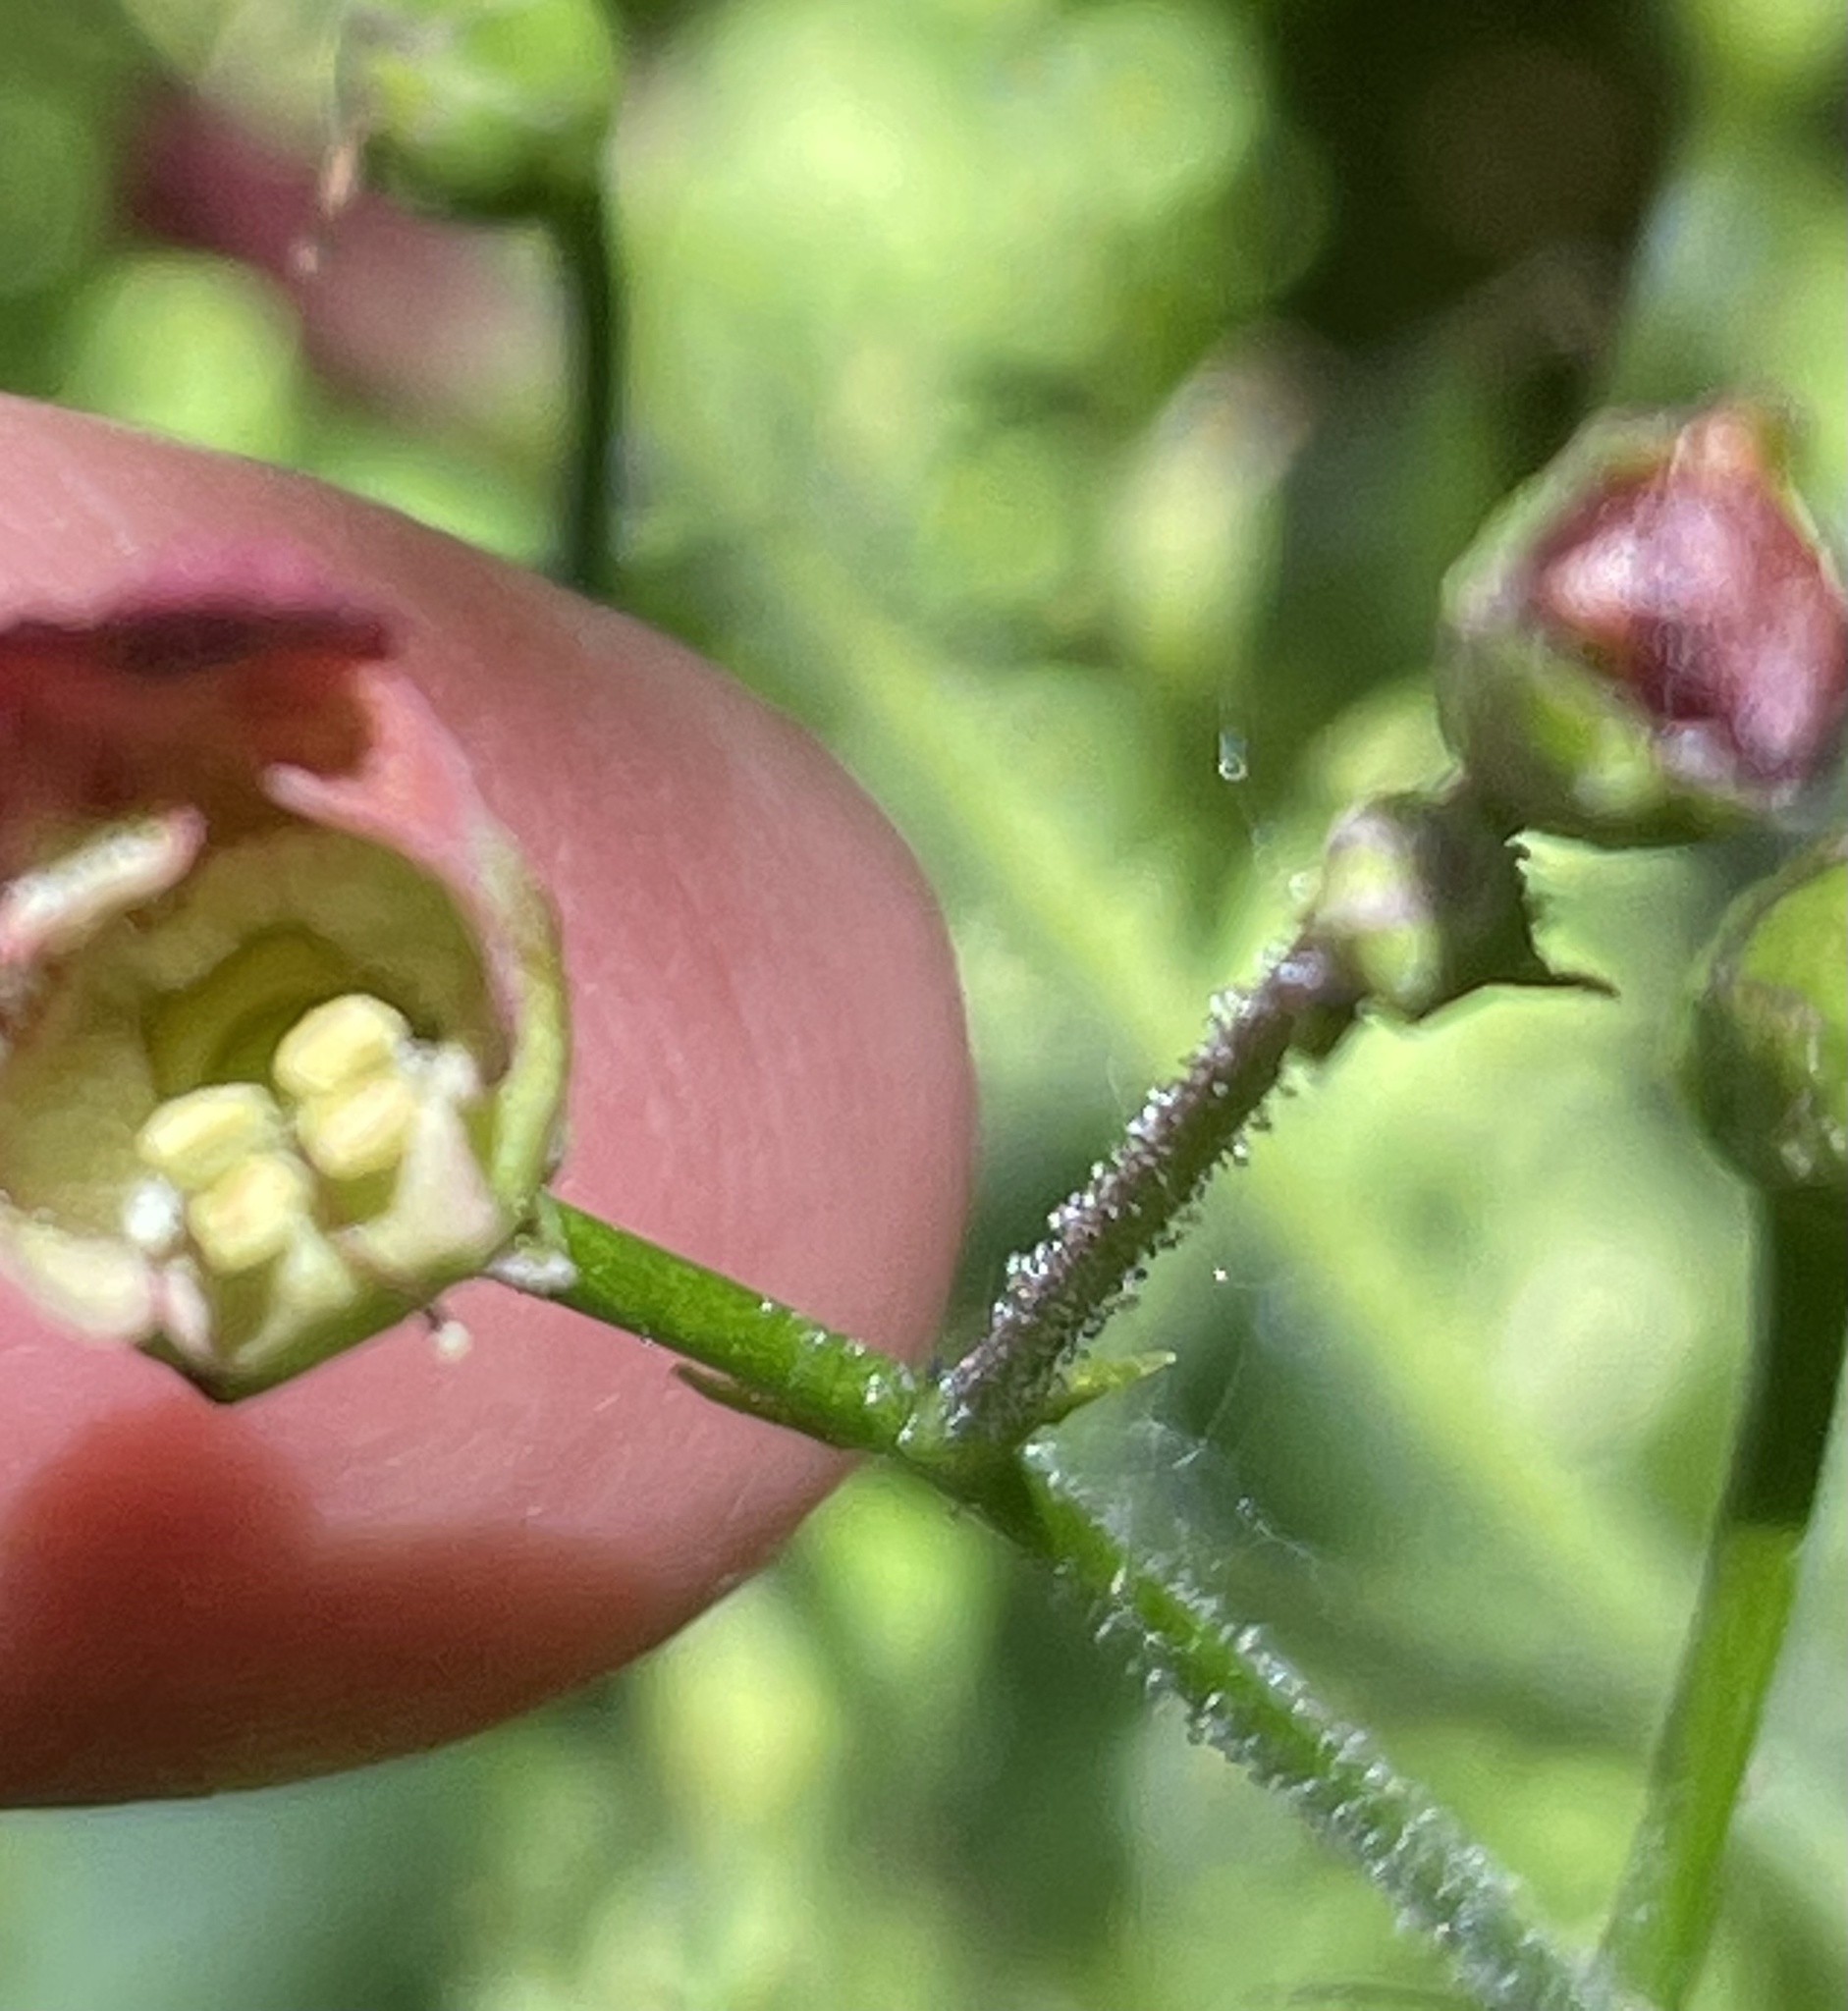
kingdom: Plantae
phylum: Tracheophyta
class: Magnoliopsida
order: Lamiales
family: Scrophulariaceae
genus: Scrophularia
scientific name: Scrophularia californica
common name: California figwort
